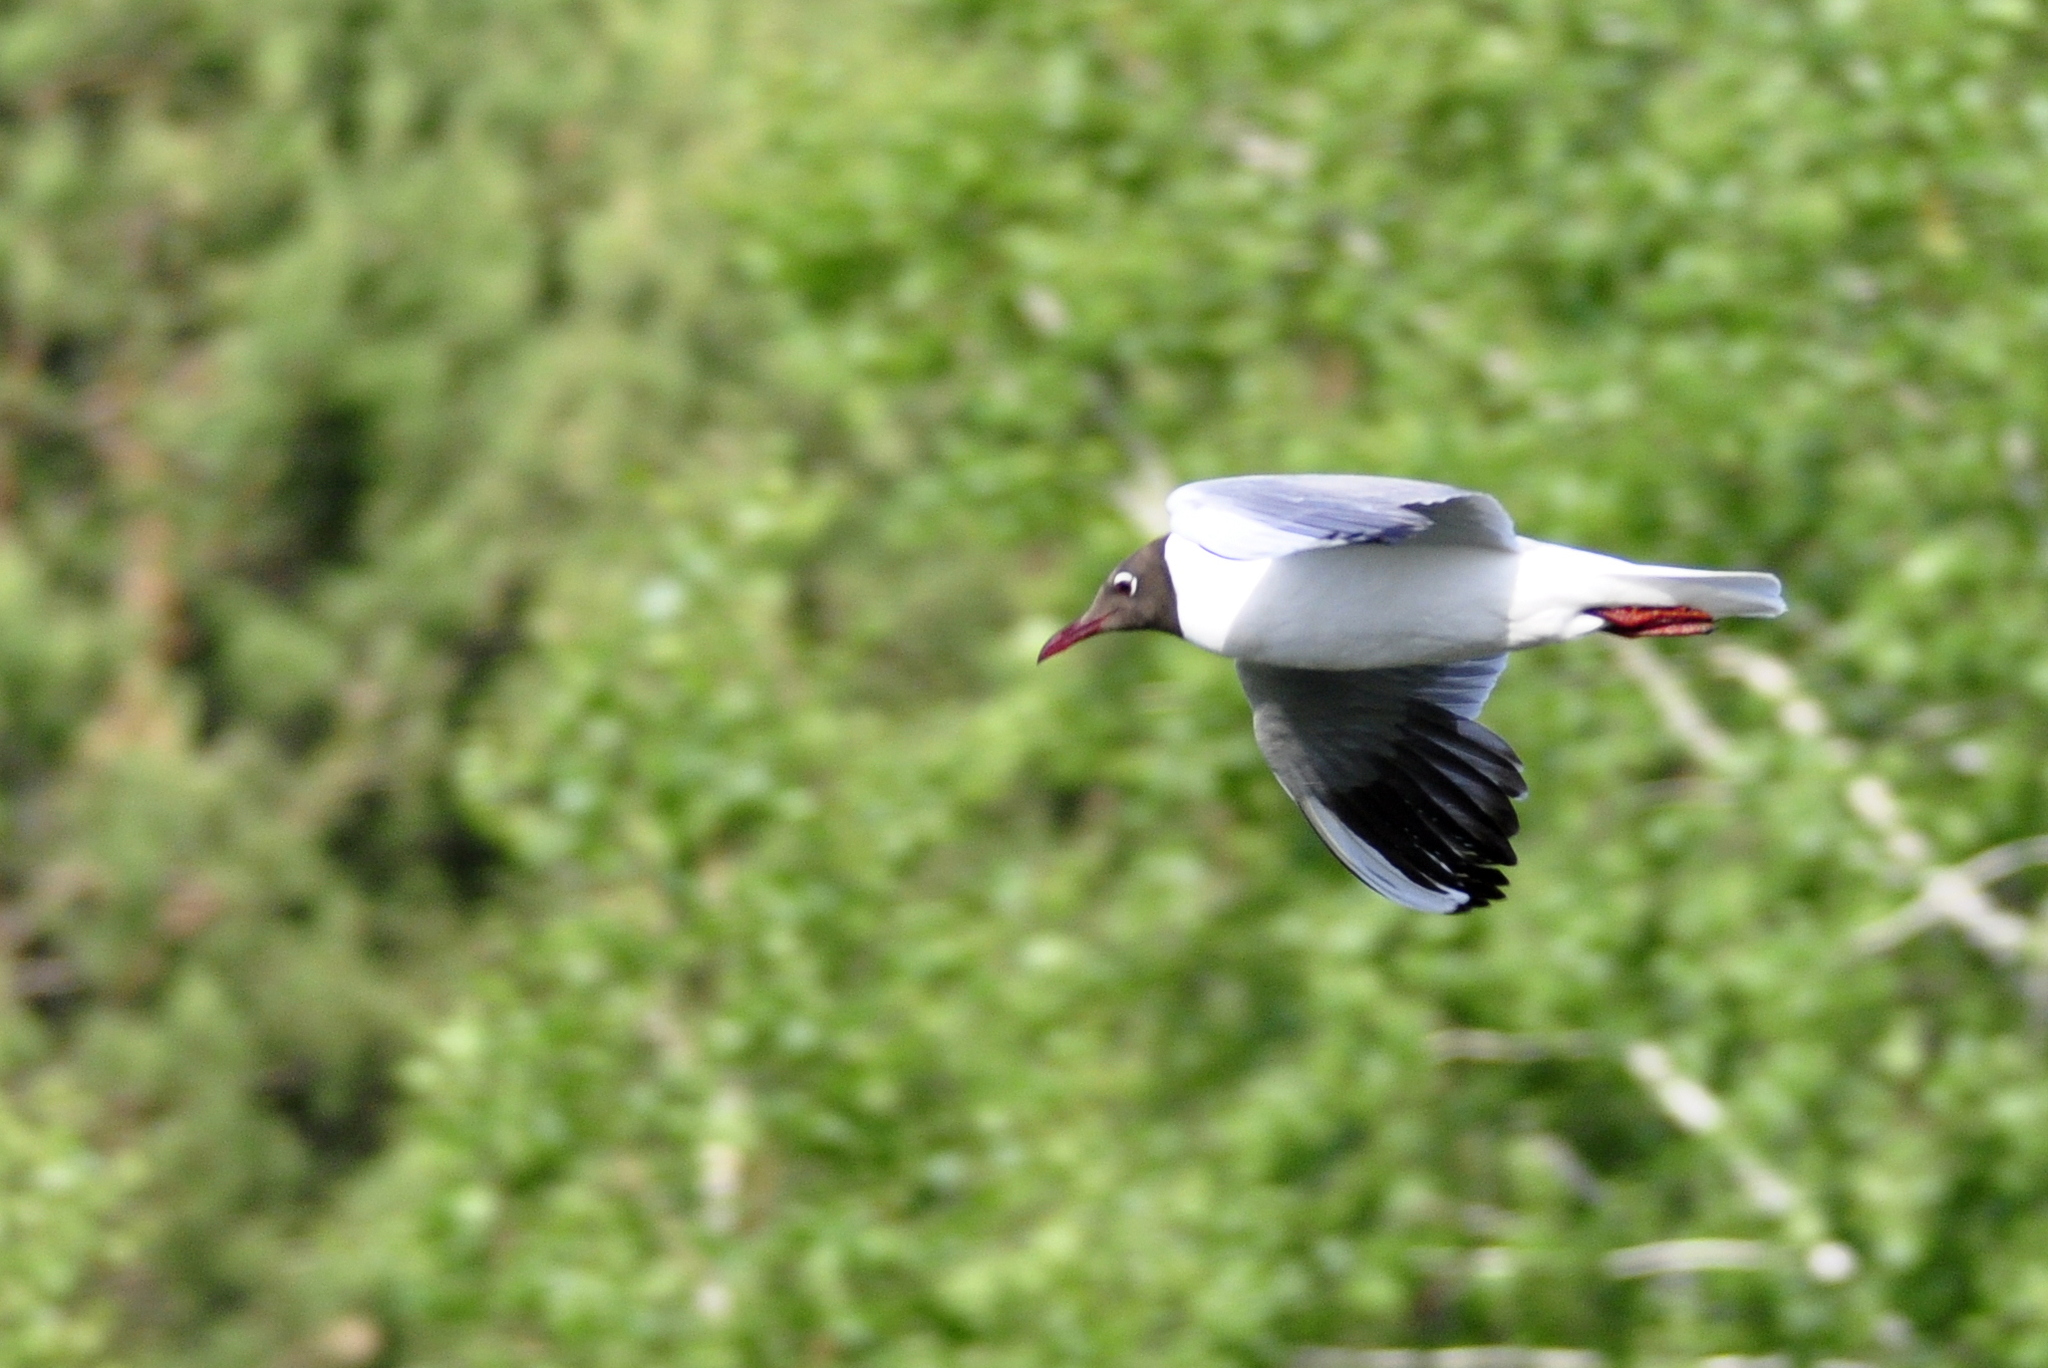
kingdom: Animalia
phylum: Chordata
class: Aves
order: Charadriiformes
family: Laridae
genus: Chroicocephalus
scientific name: Chroicocephalus ridibundus
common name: Black-headed gull
